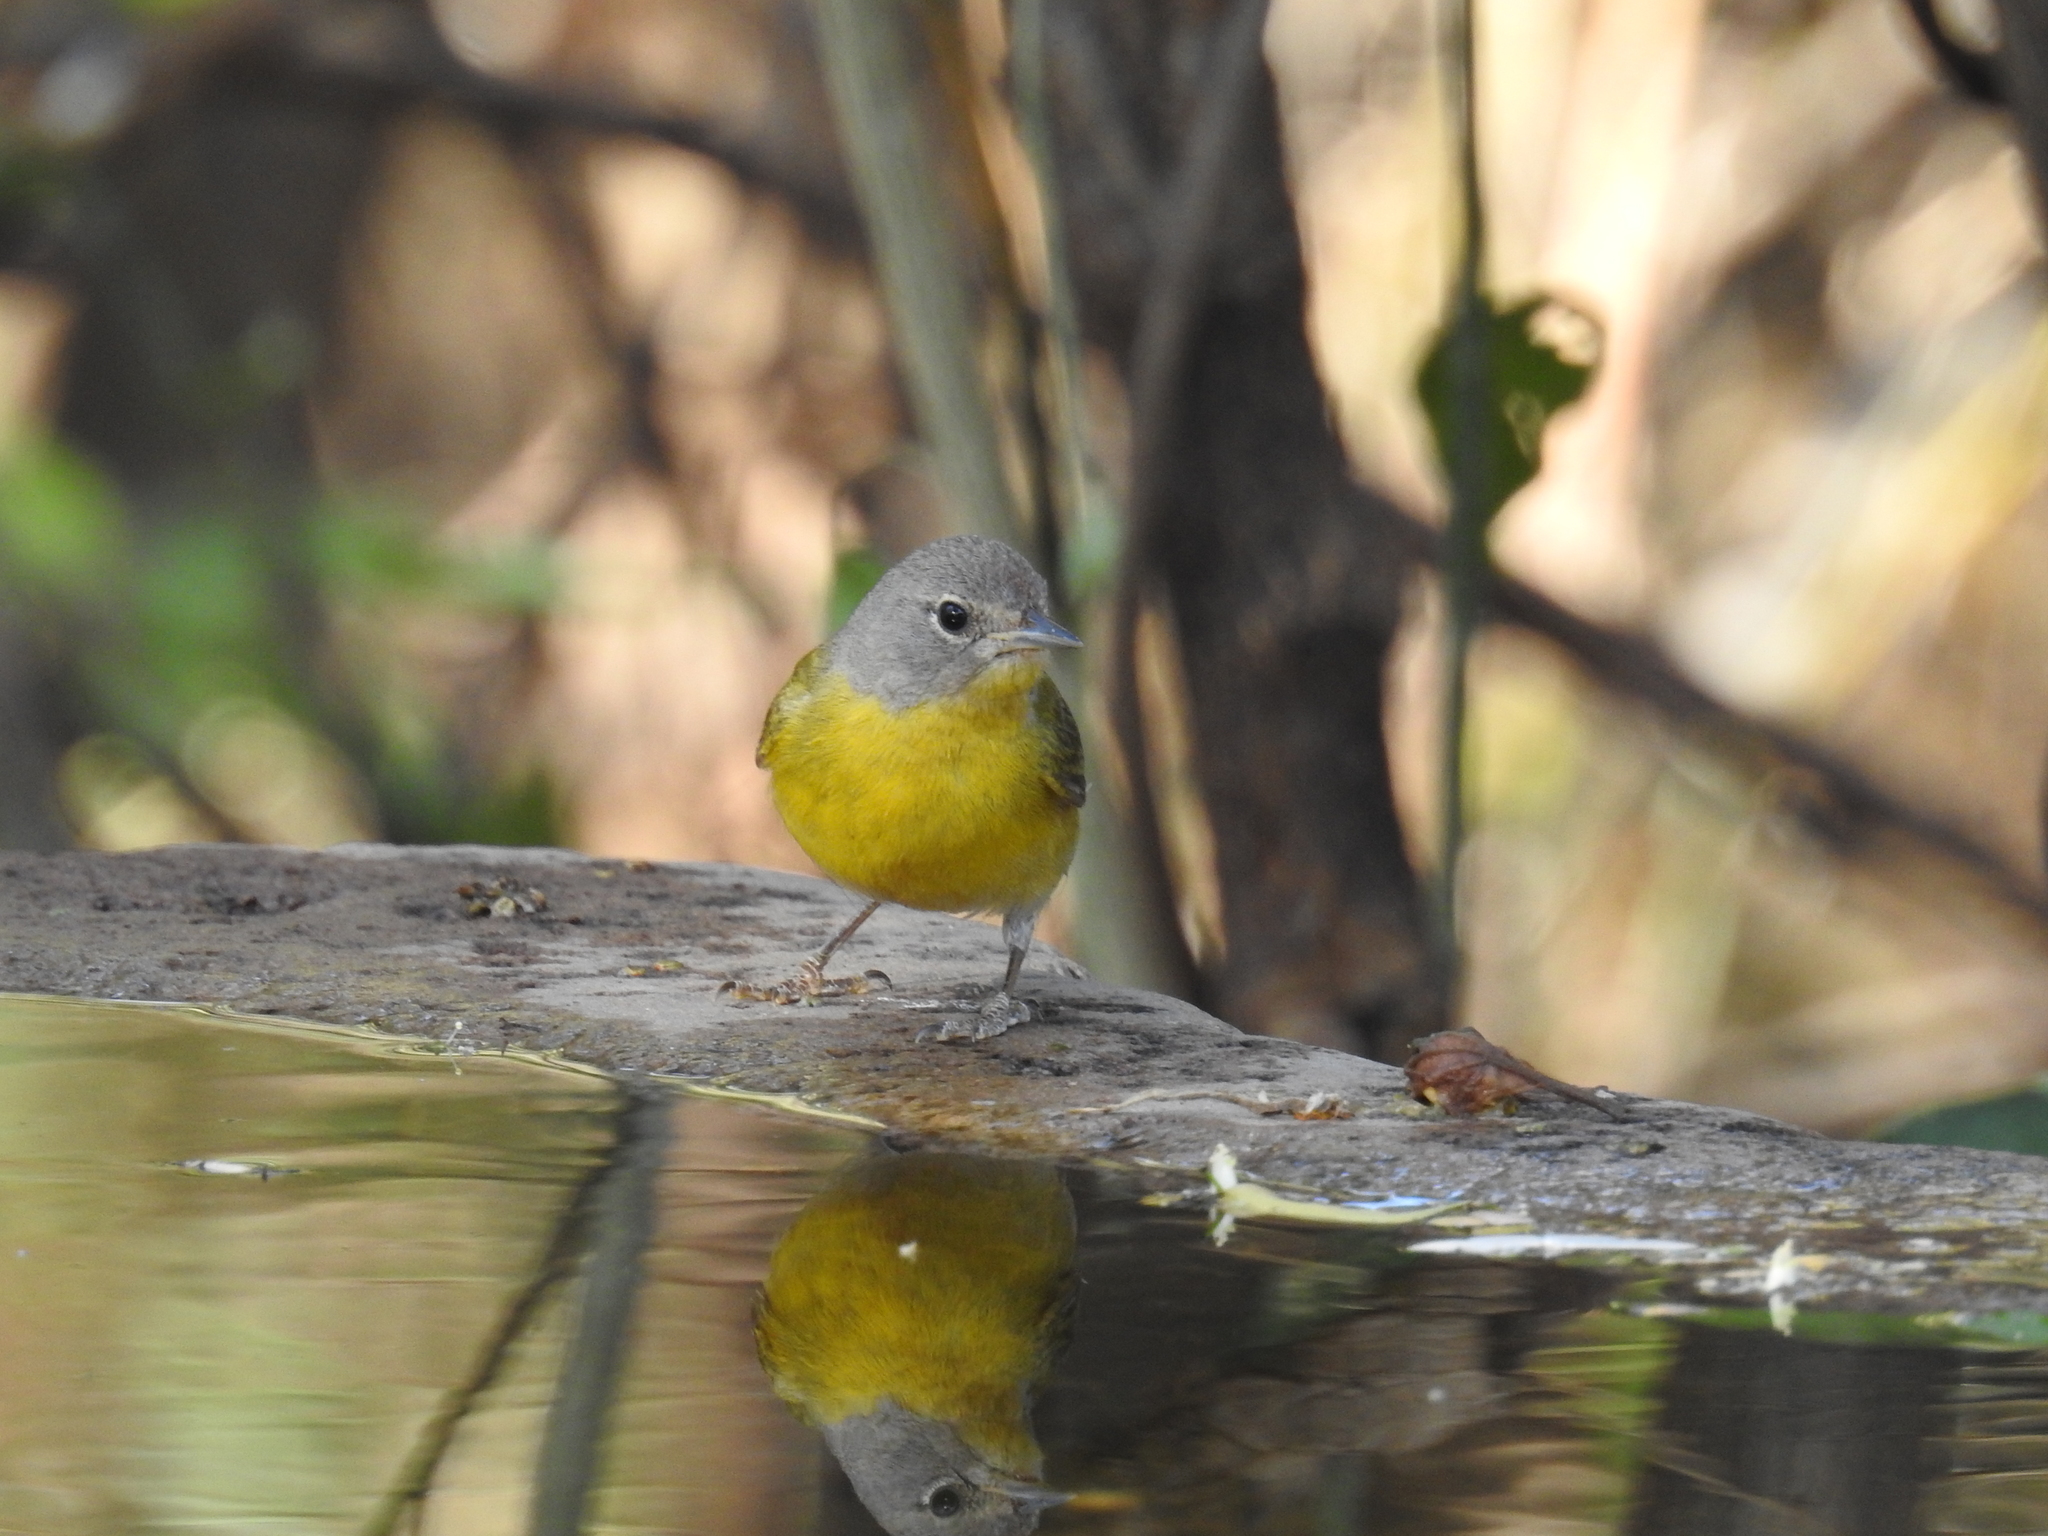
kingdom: Animalia
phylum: Chordata
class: Aves
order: Passeriformes
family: Parulidae
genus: Leiothlypis
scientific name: Leiothlypis ruficapilla
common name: Nashville warbler
